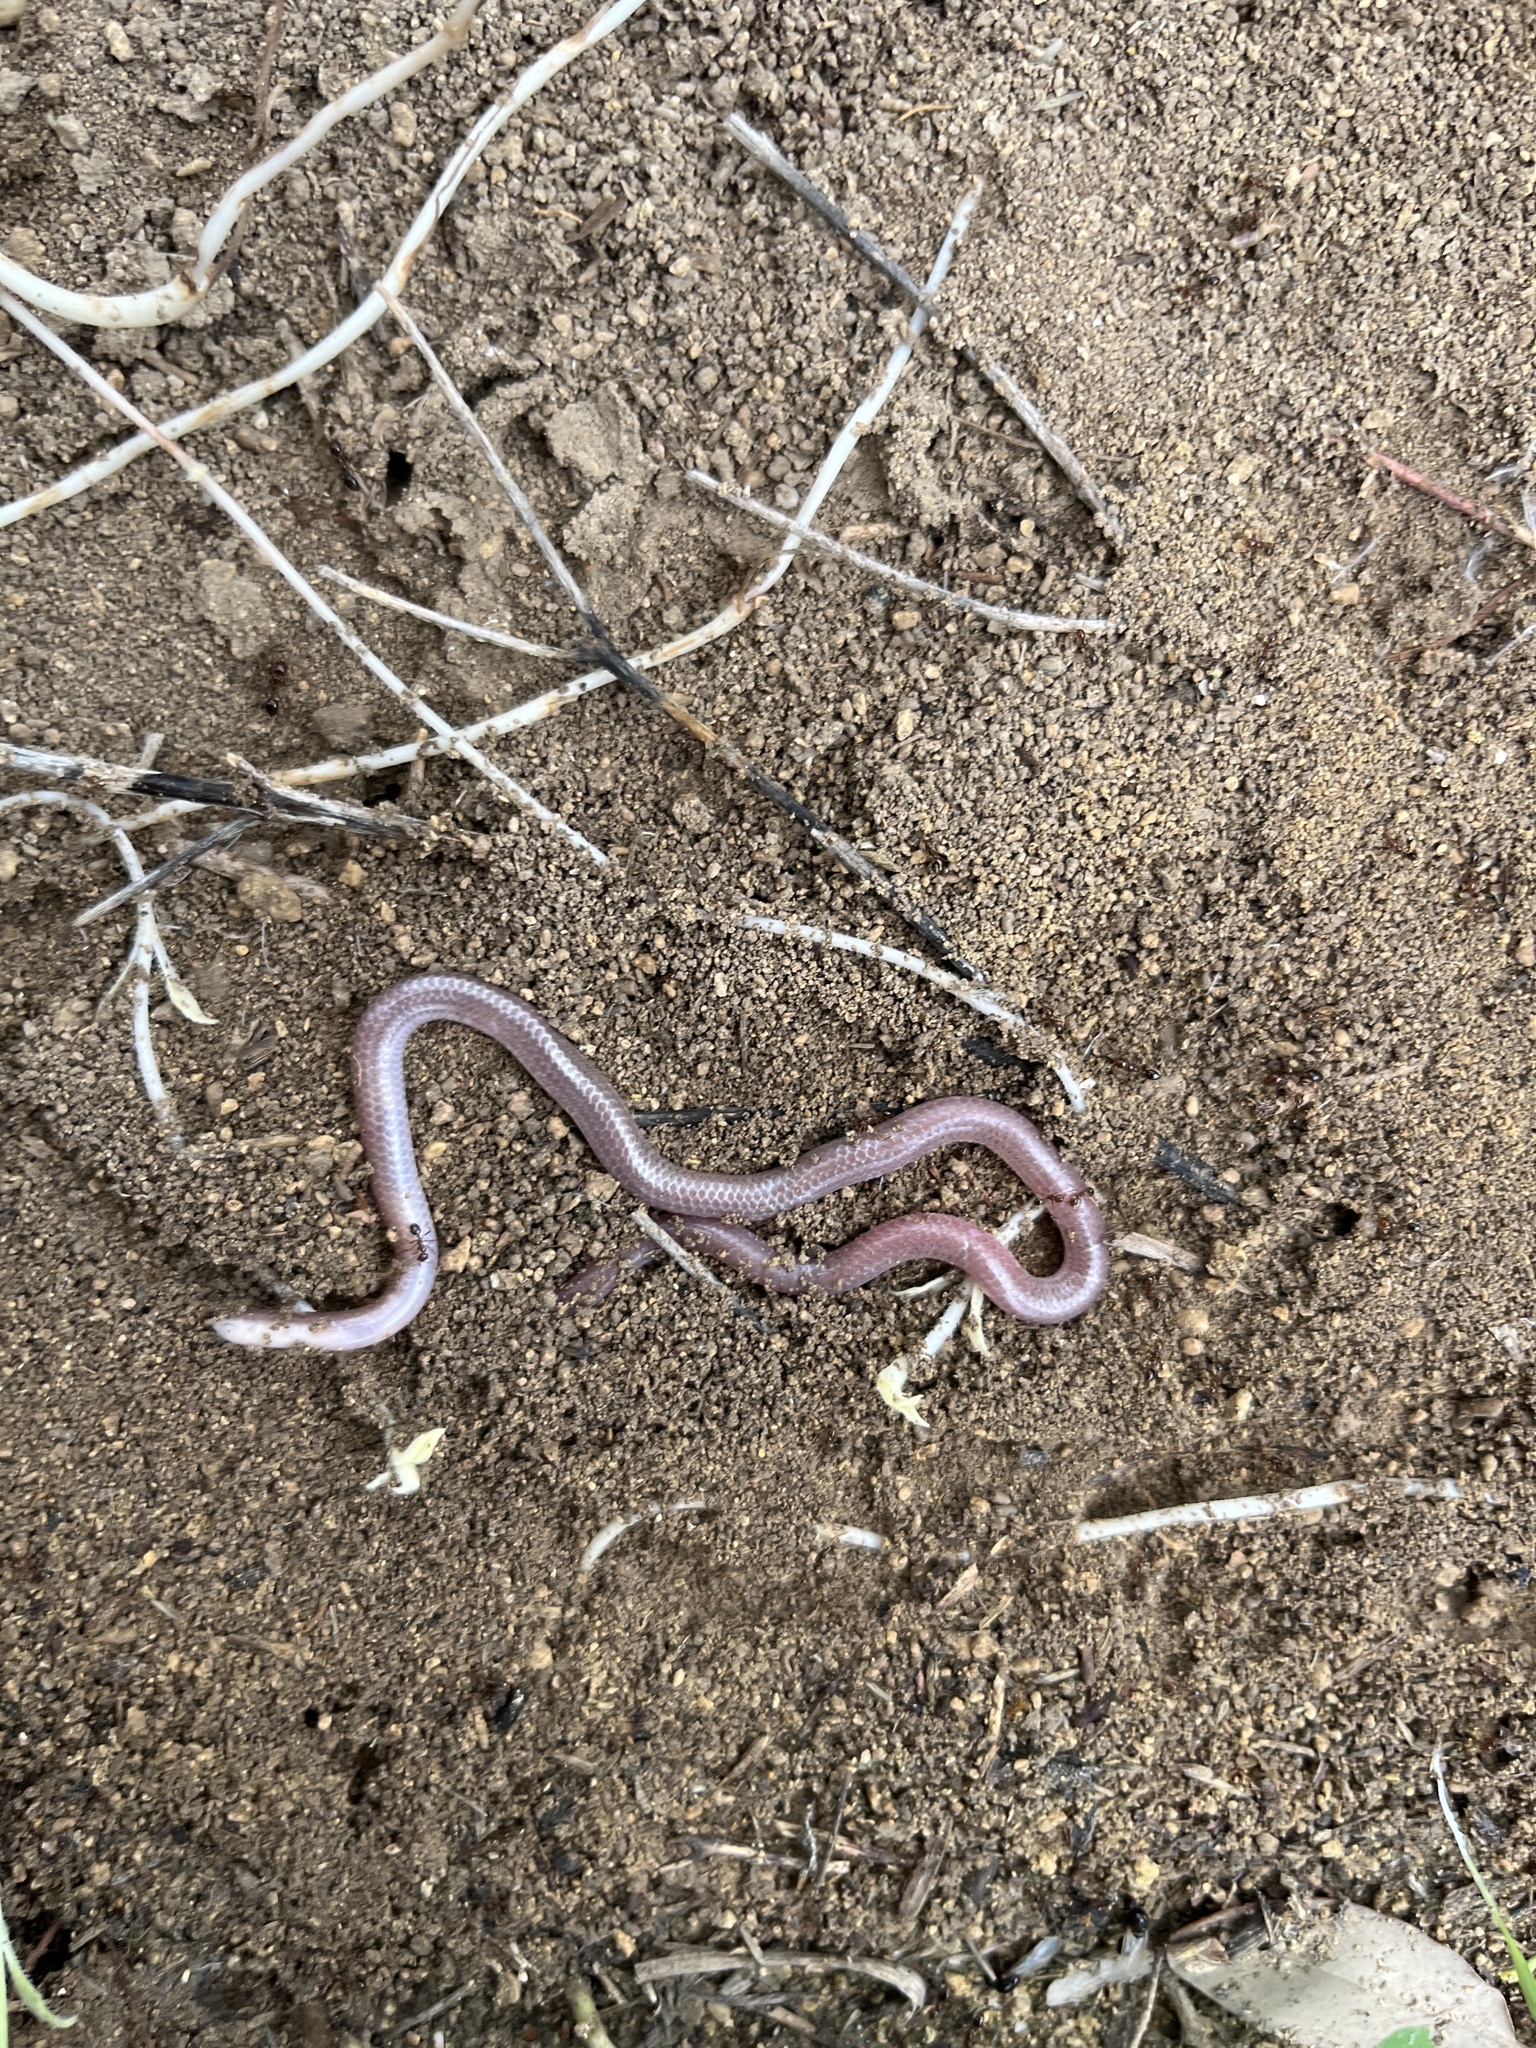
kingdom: Animalia
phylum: Chordata
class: Squamata
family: Leptotyphlopidae
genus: Rena
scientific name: Rena dulcis
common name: Texas blind snake
